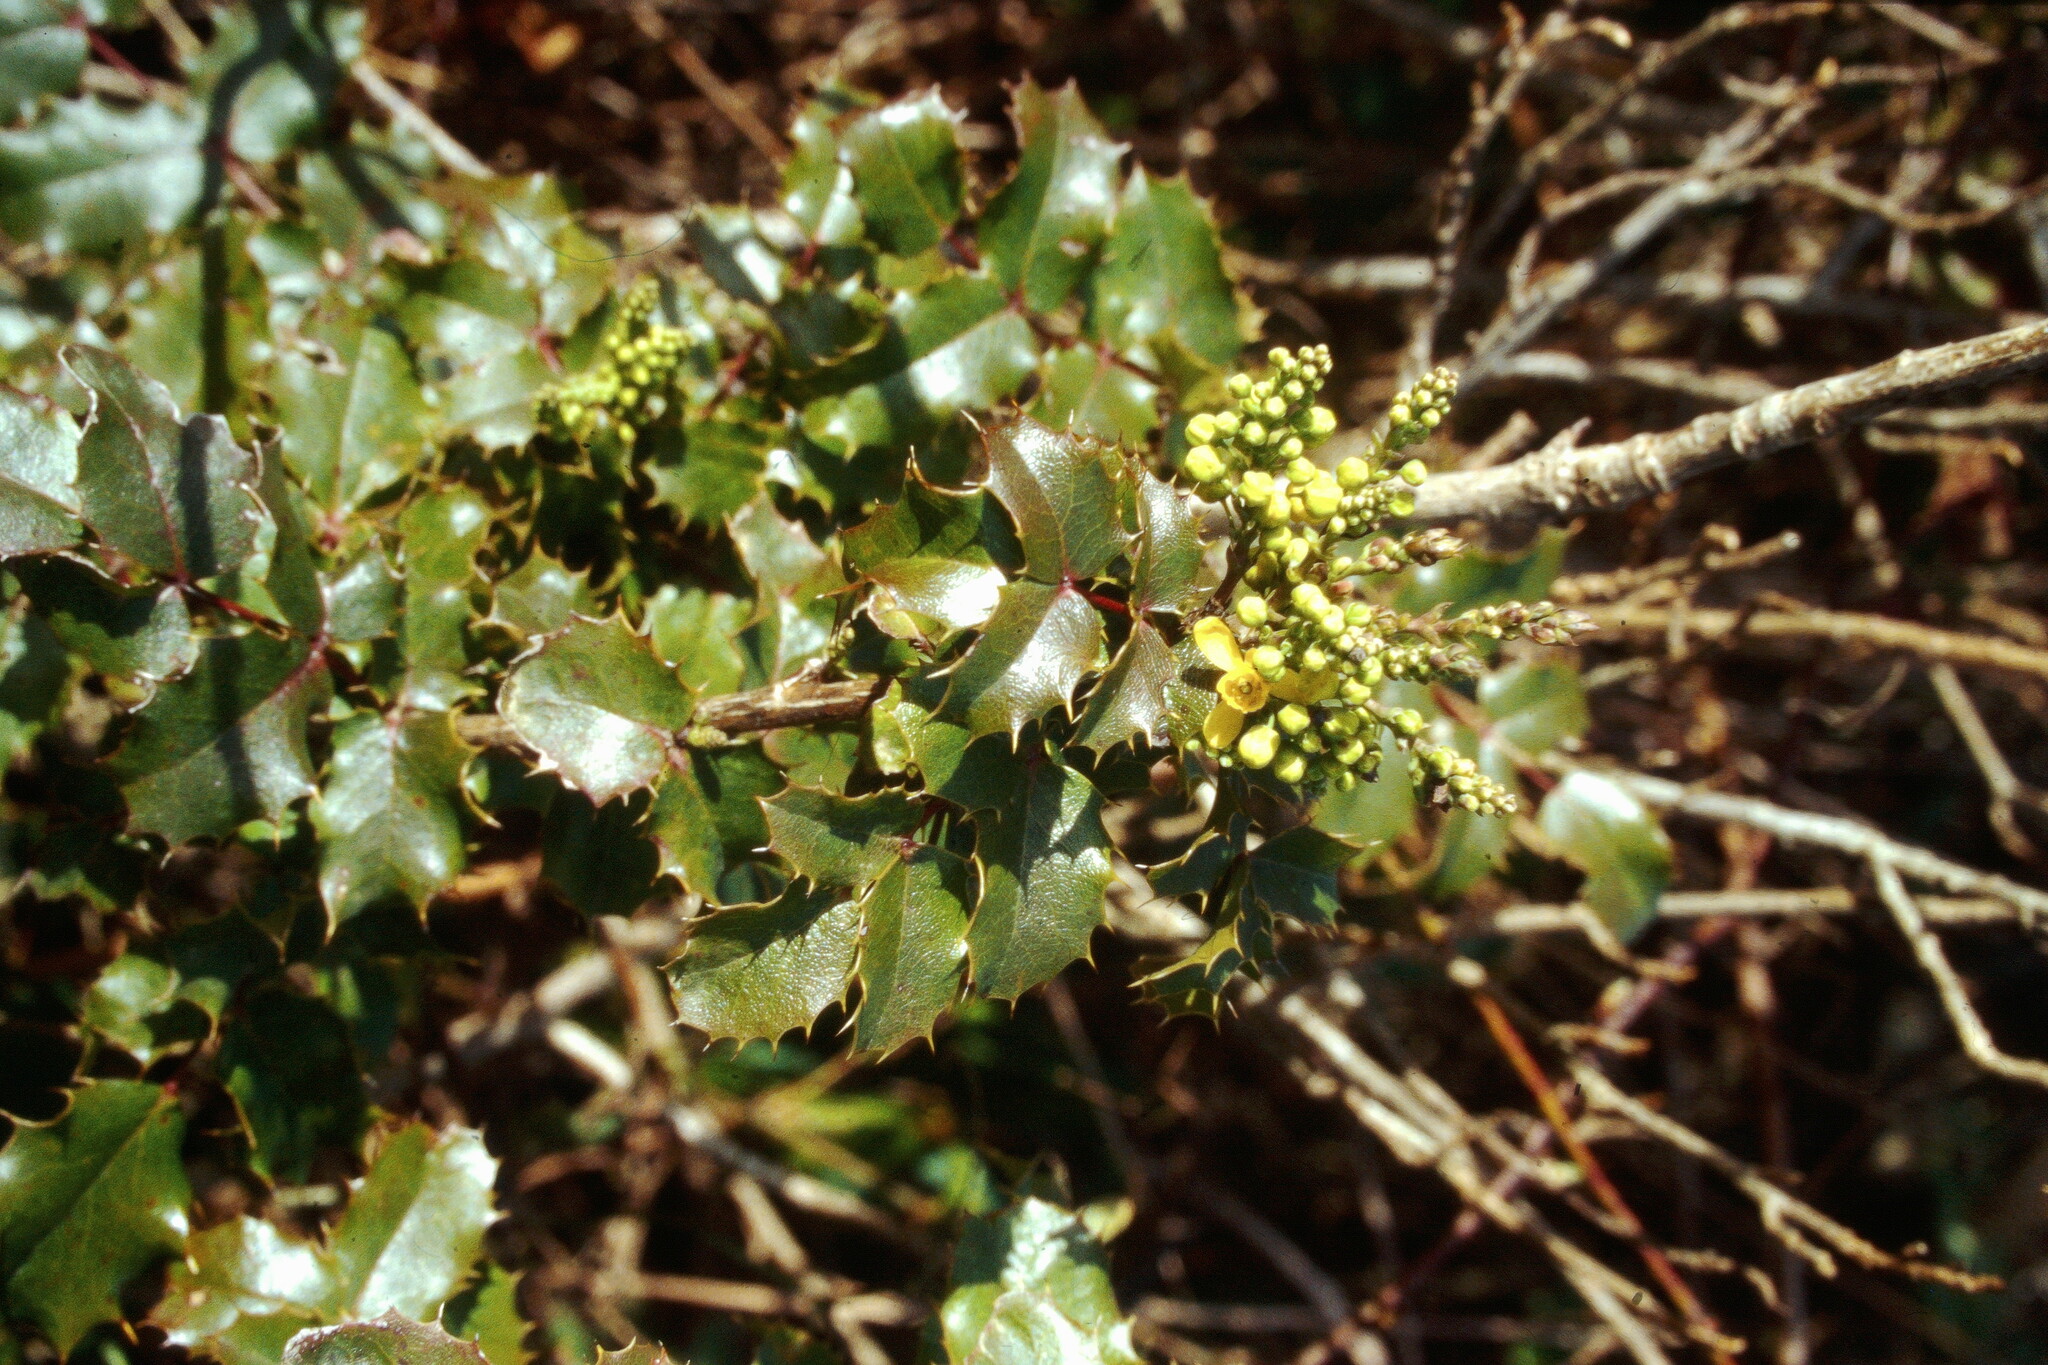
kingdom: Plantae
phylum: Tracheophyta
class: Magnoliopsida
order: Ranunculales
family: Berberidaceae
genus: Mahonia
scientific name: Mahonia
